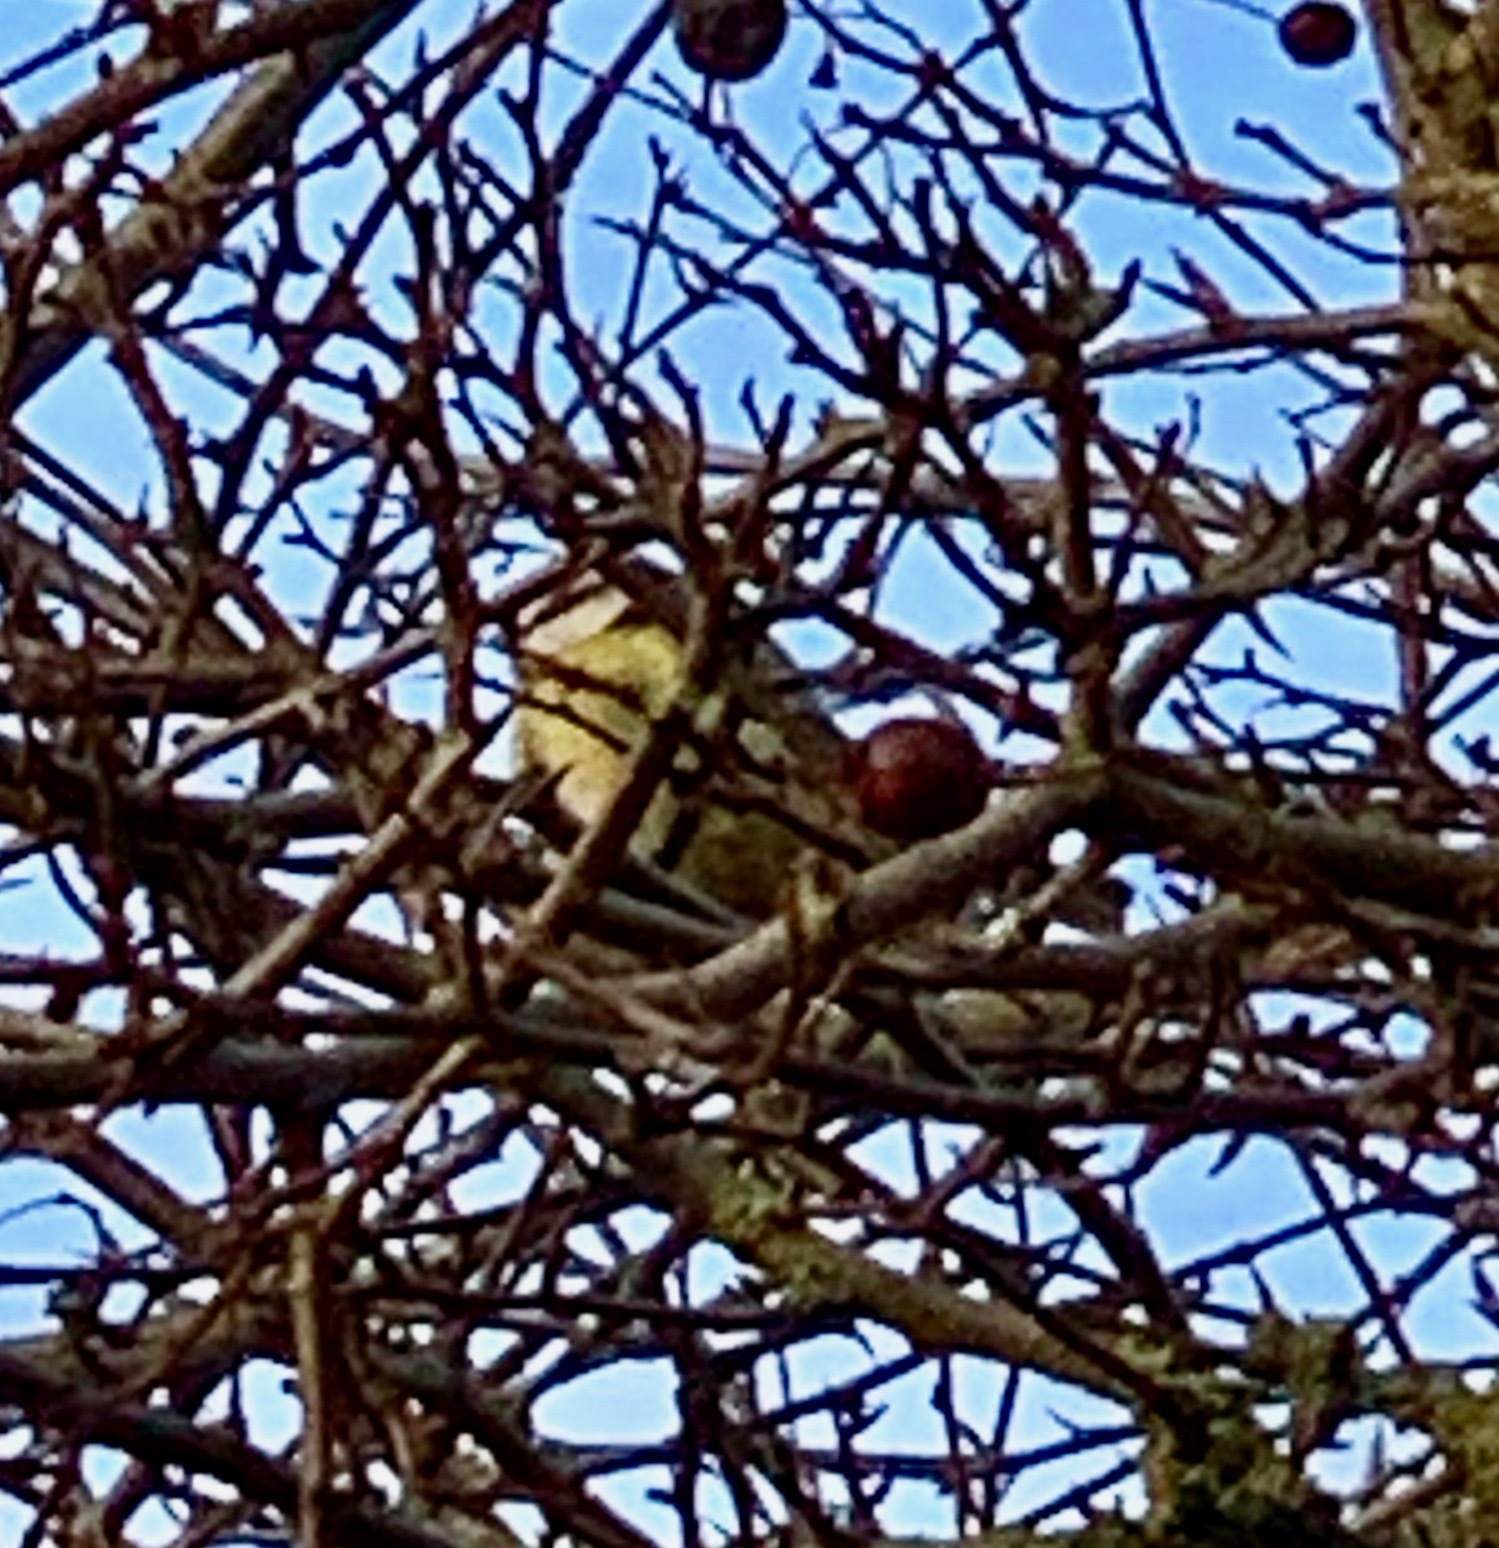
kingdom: Animalia
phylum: Chordata
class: Aves
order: Passeriformes
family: Paridae
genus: Cyanistes
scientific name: Cyanistes caeruleus
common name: Eurasian blue tit
